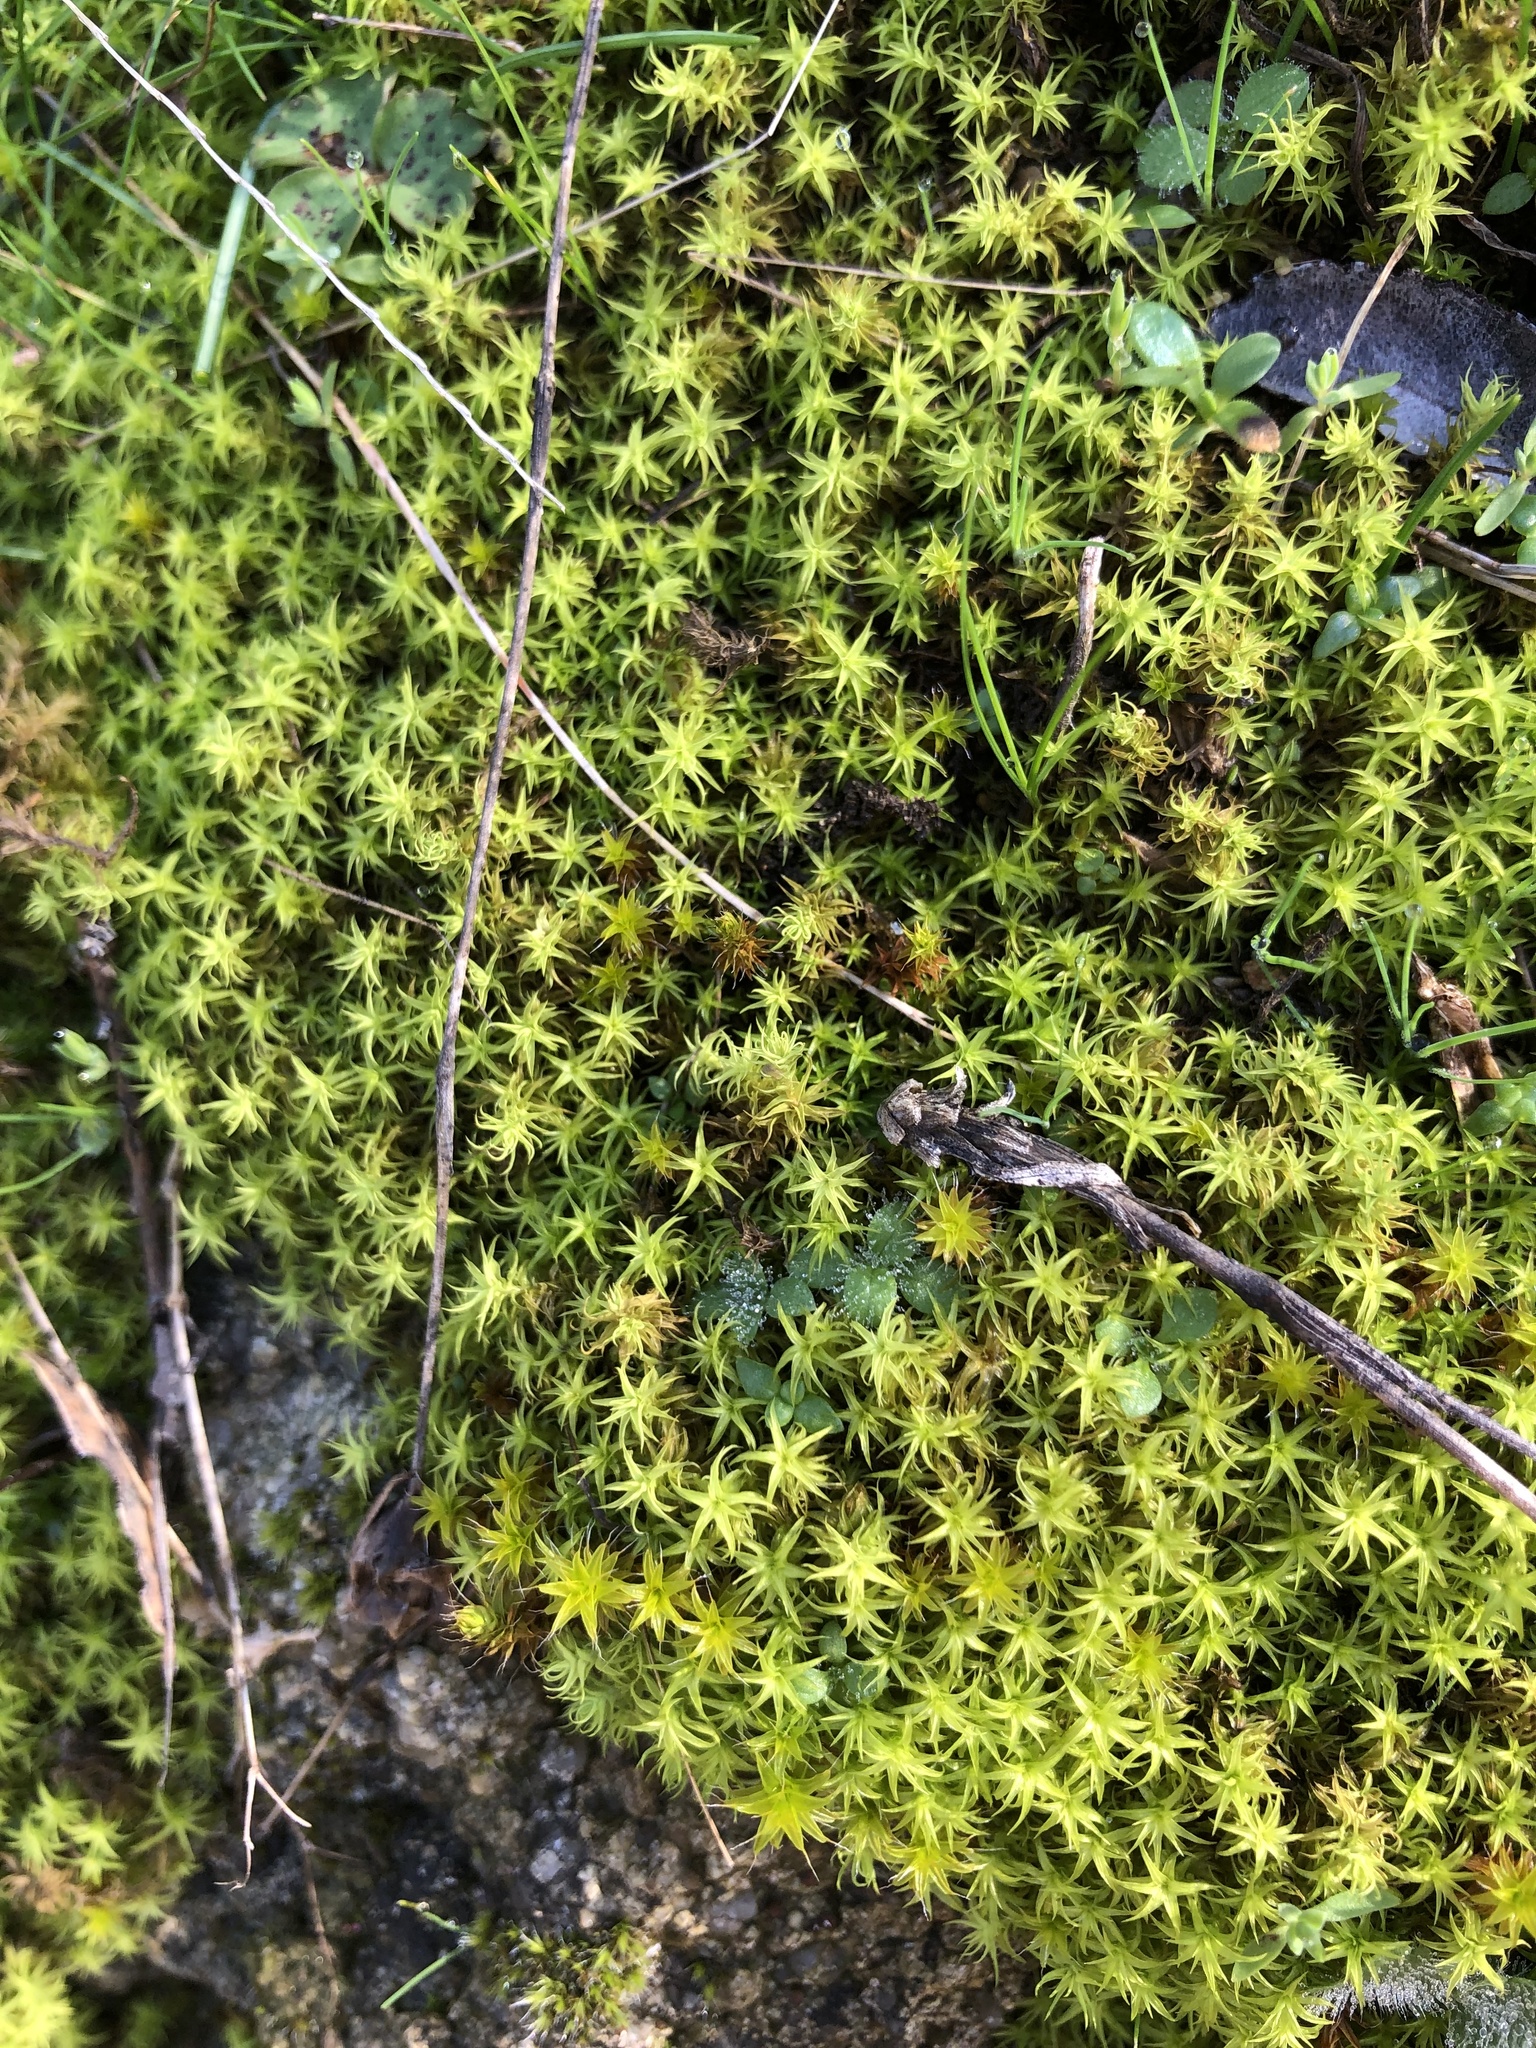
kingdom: Plantae
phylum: Bryophyta
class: Bryopsida
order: Pottiales
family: Pottiaceae
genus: Pleurochaete
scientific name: Pleurochaete squarrosa
